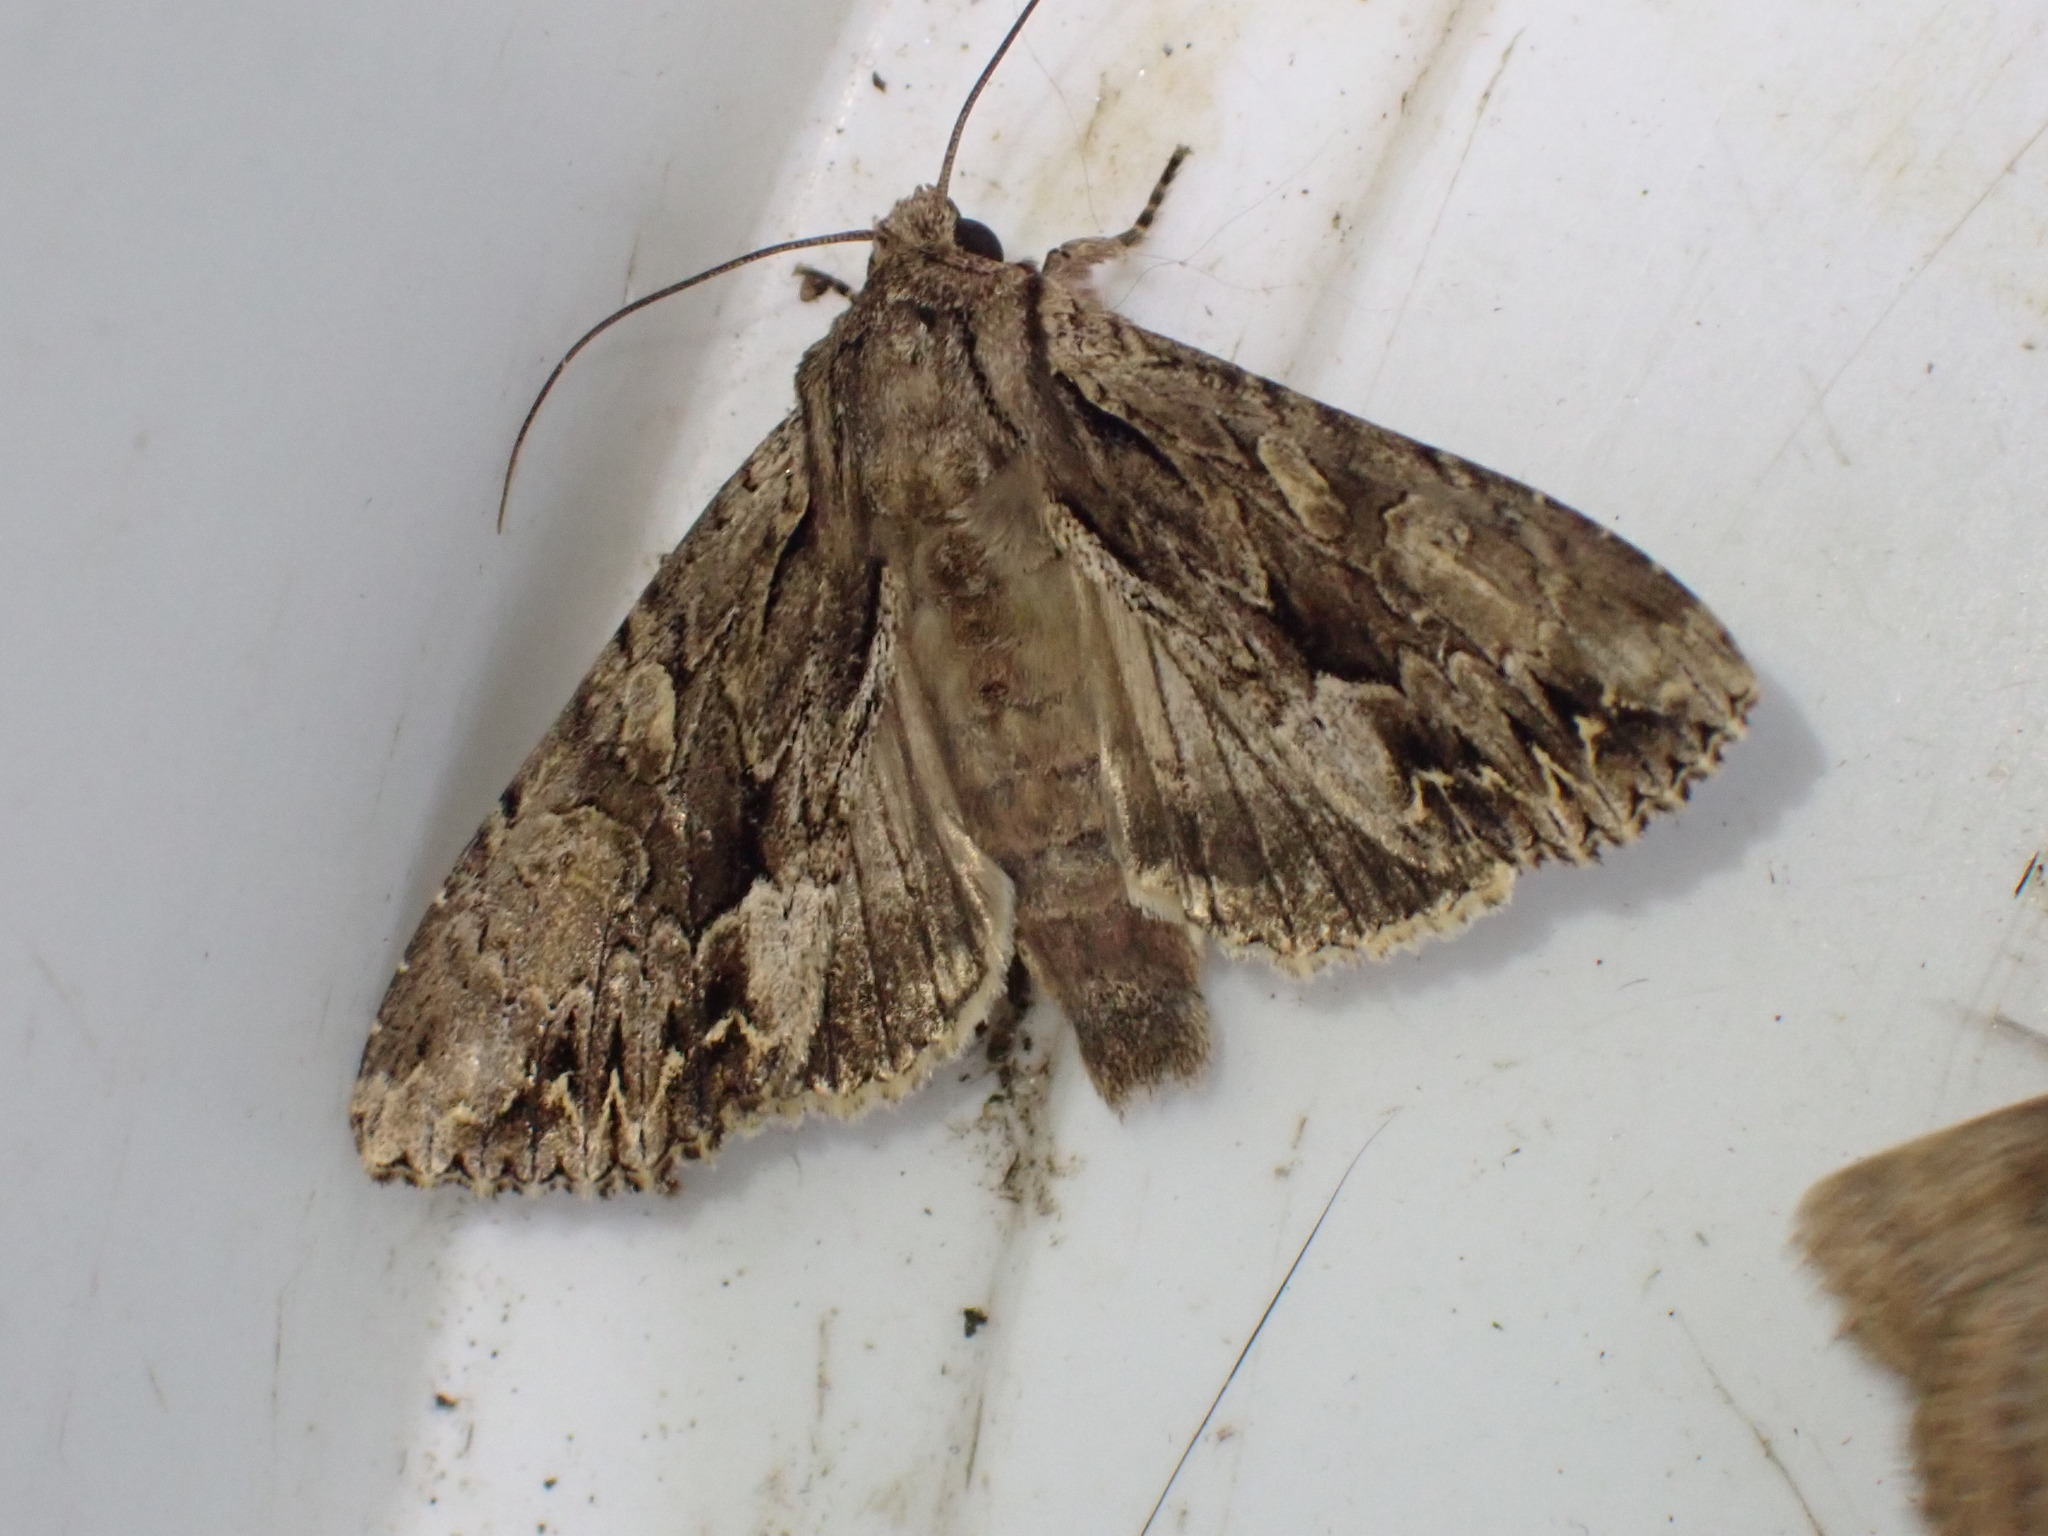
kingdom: Animalia
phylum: Arthropoda
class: Insecta
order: Lepidoptera
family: Noctuidae
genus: Apamea
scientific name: Apamea monoglypha
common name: Dark arches
